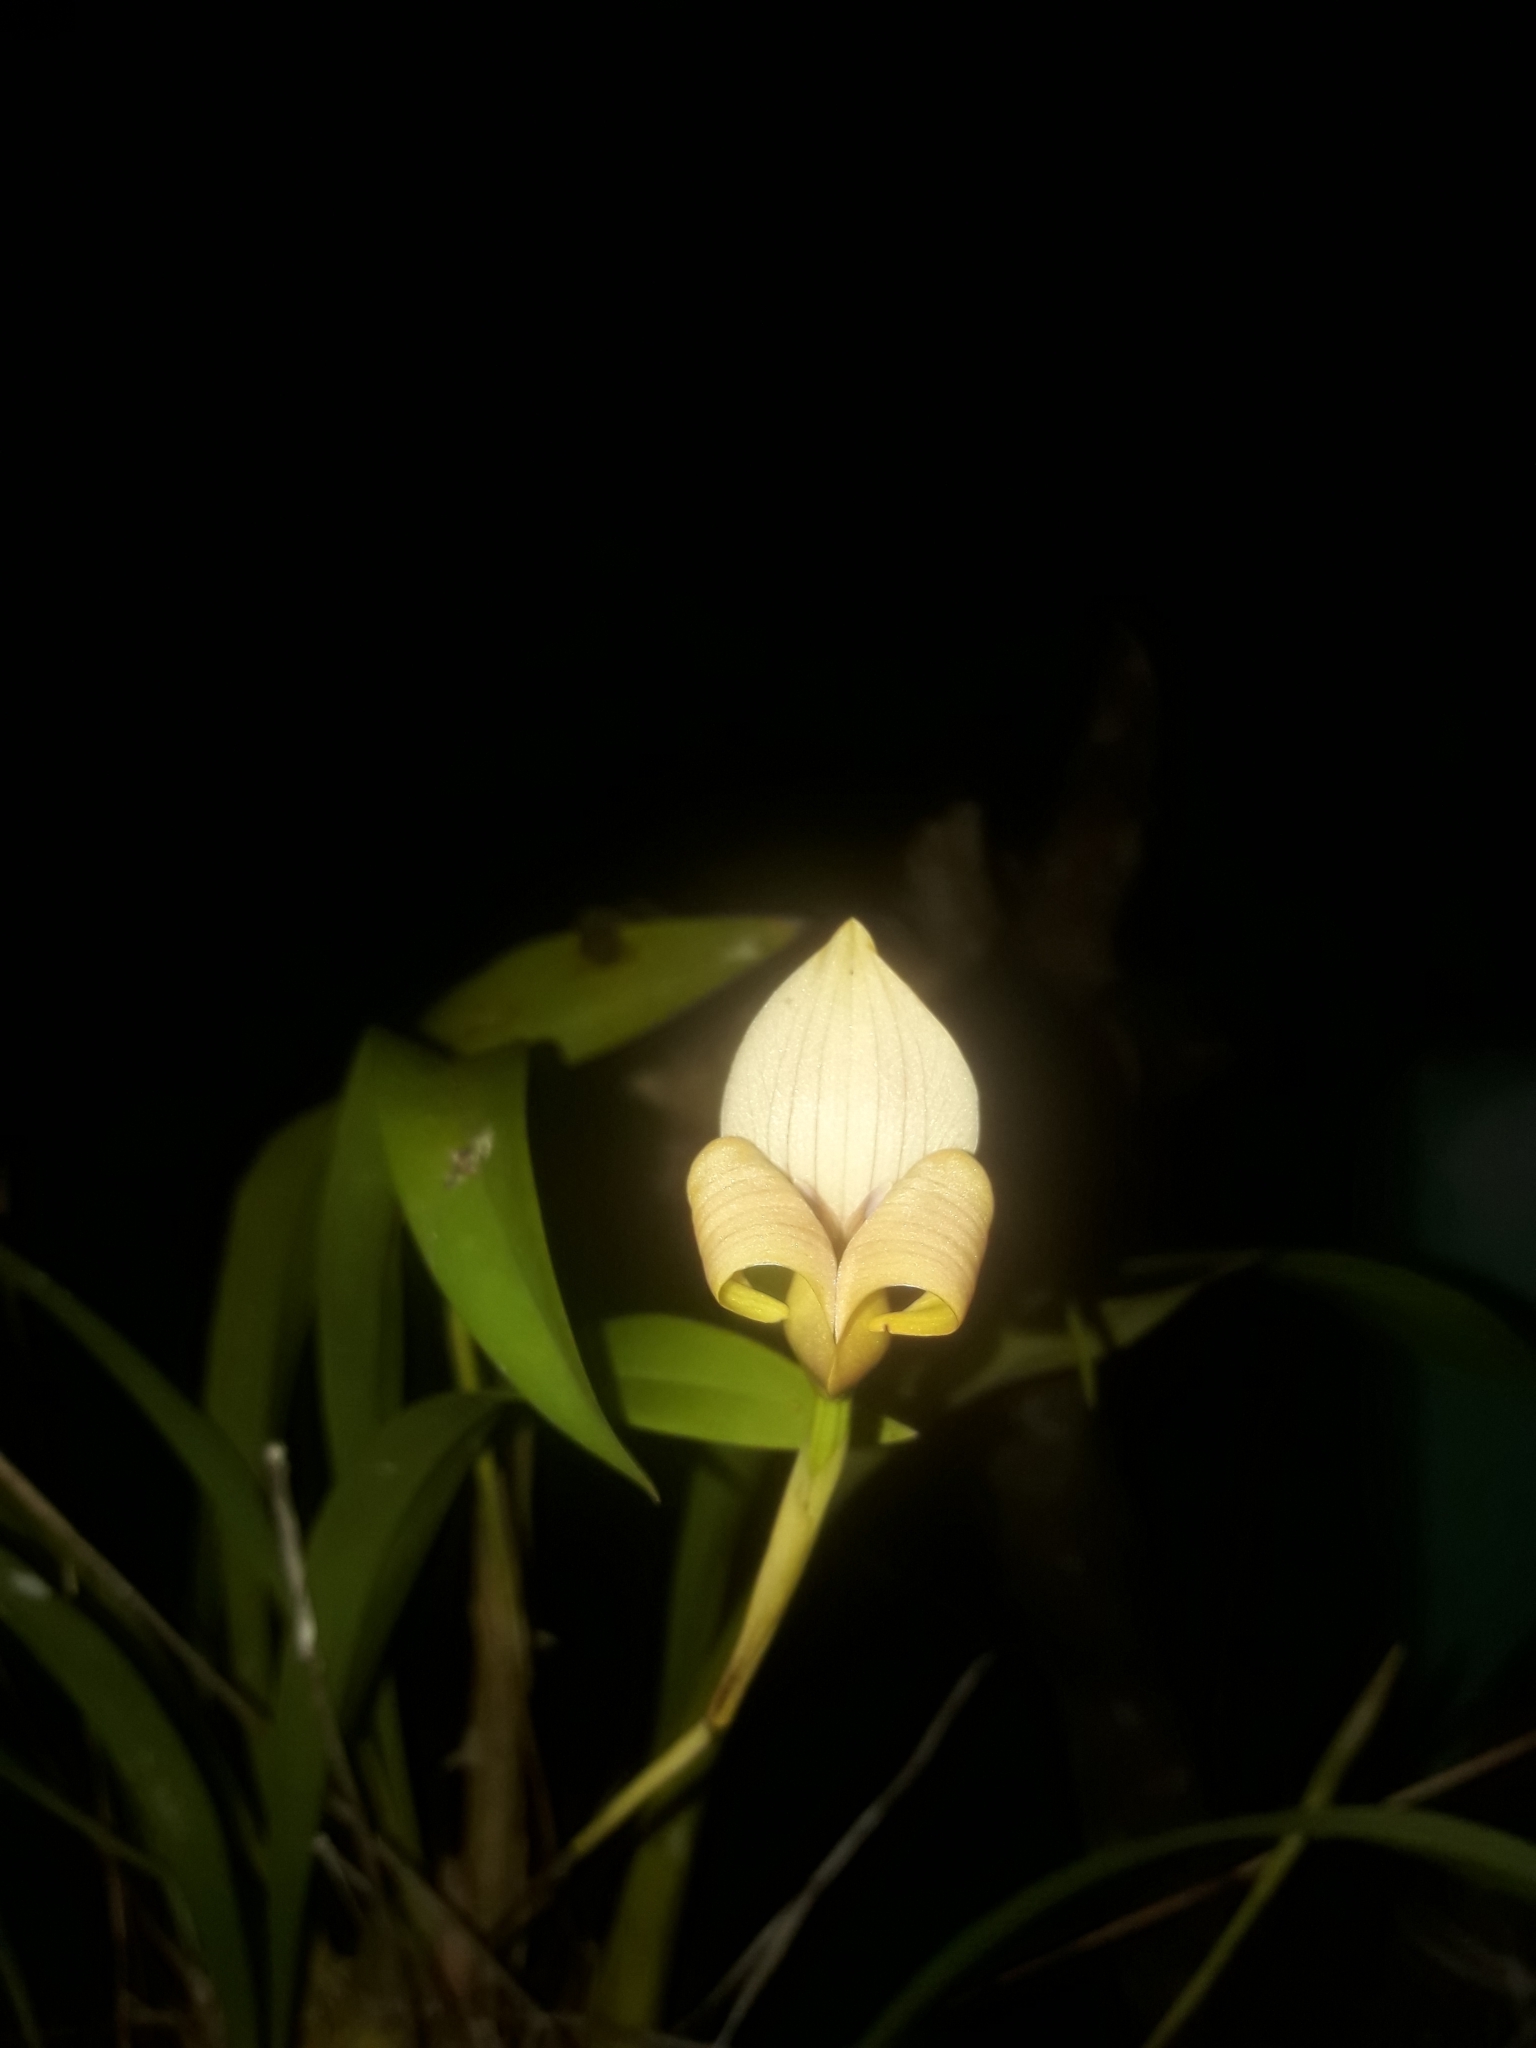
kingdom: Plantae
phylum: Tracheophyta
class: Liliopsida
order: Asparagales
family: Orchidaceae
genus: Maxillaria
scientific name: Maxillaria egertoniana
